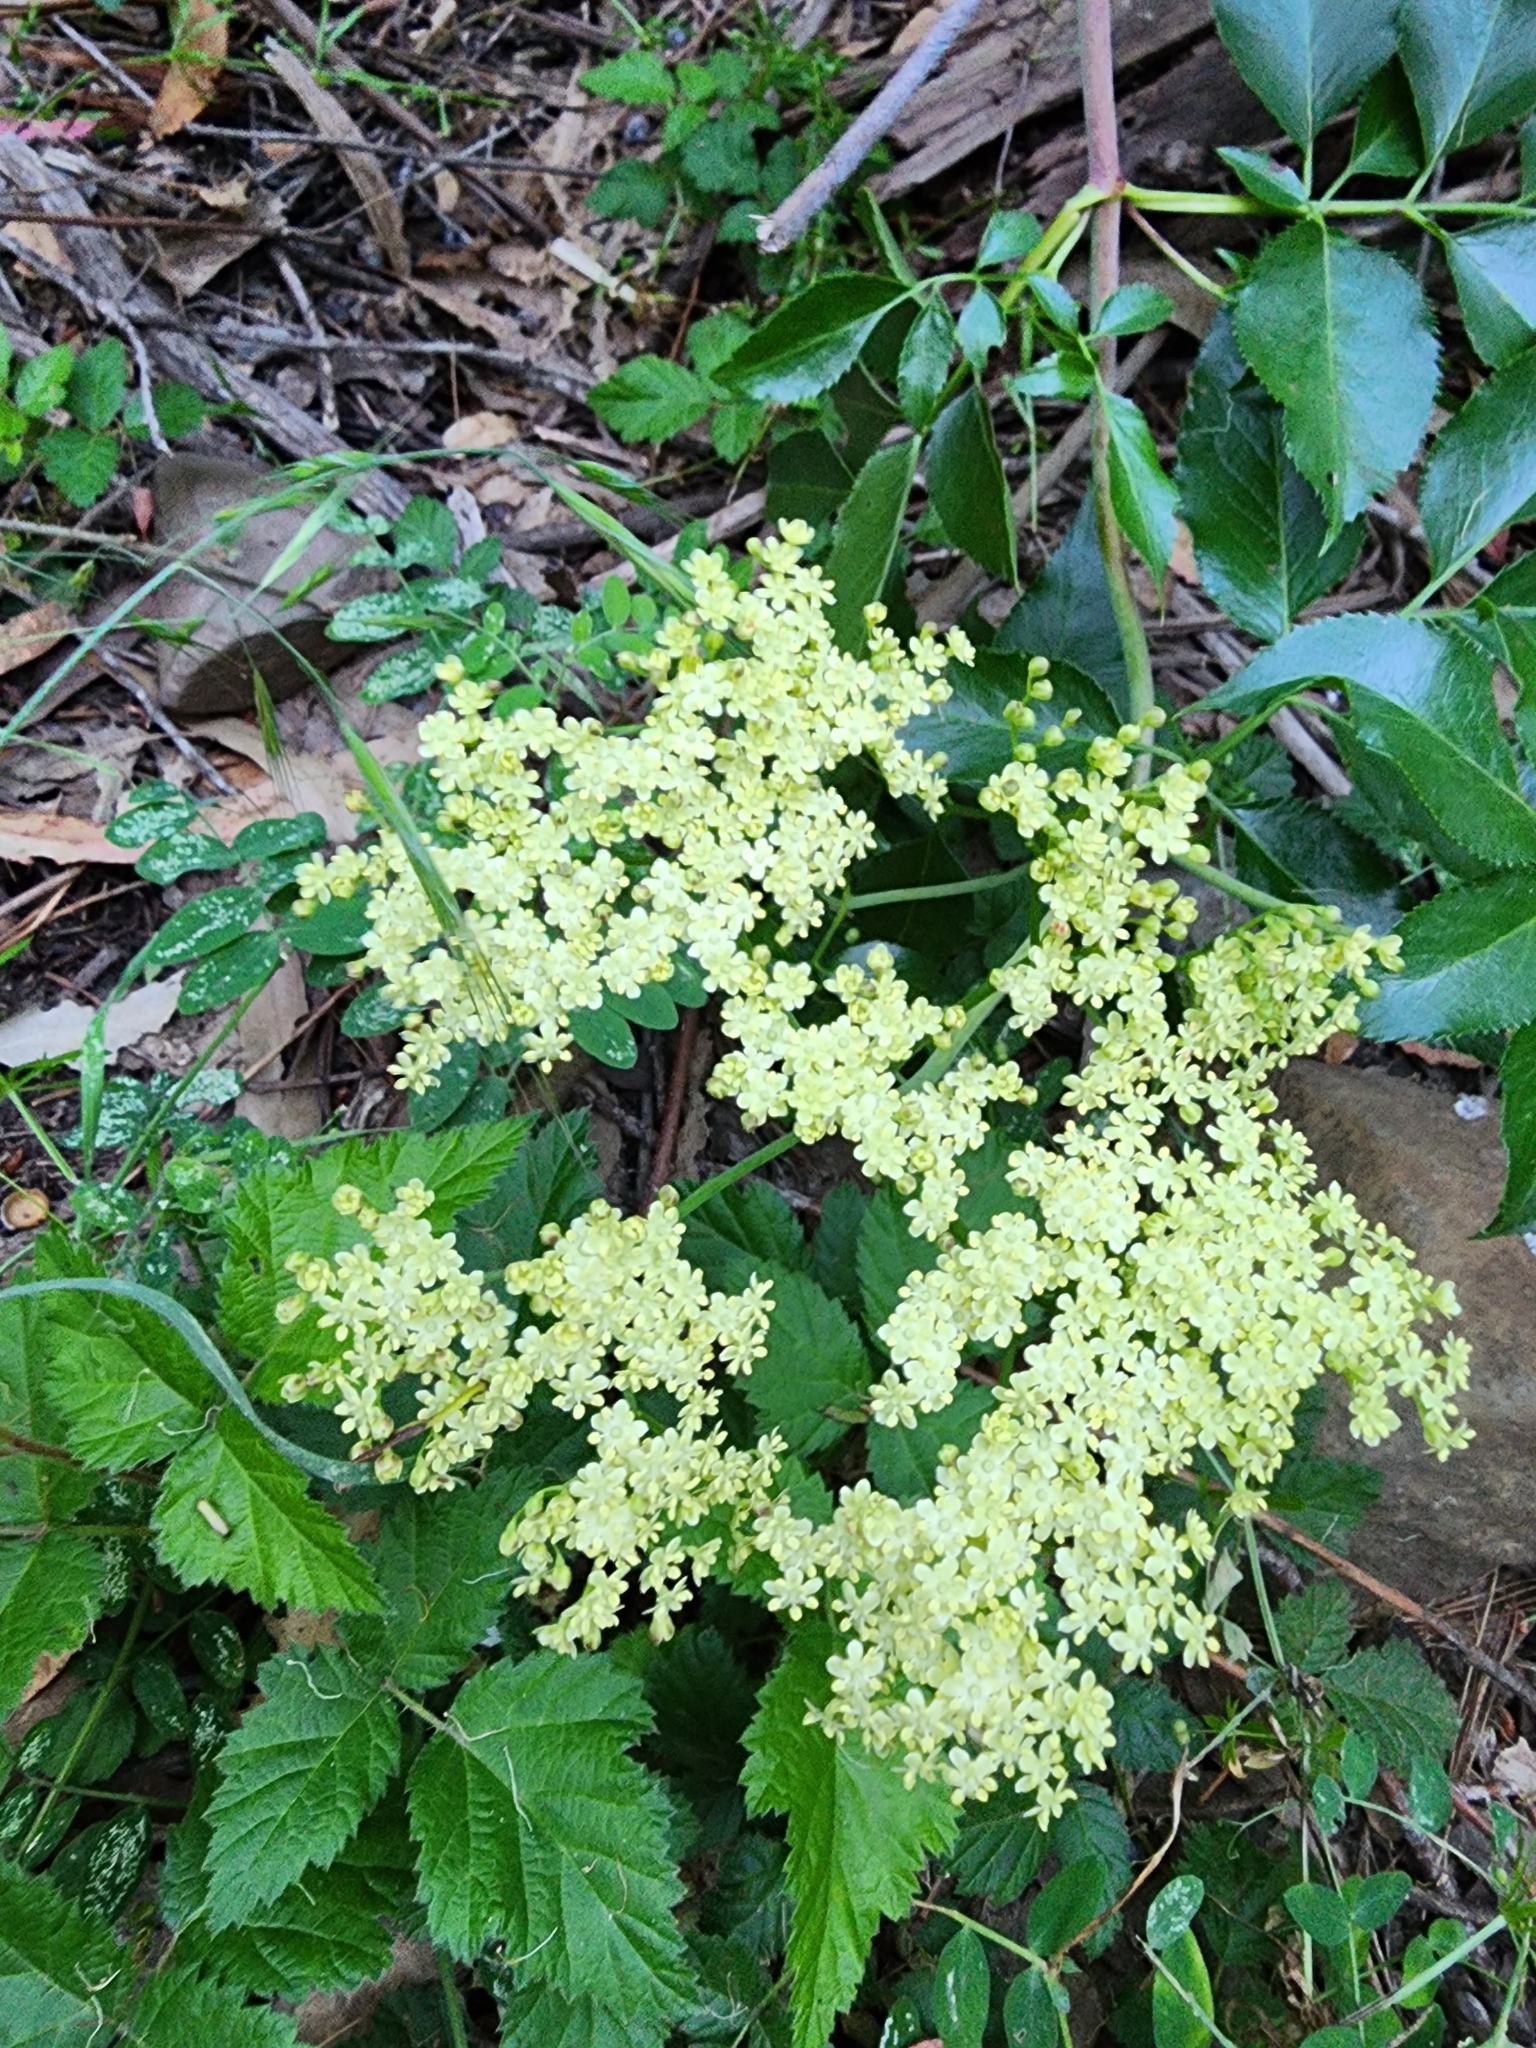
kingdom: Plantae
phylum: Tracheophyta
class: Magnoliopsida
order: Dipsacales
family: Viburnaceae
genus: Sambucus
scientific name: Sambucus cerulea
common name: Blue elder
